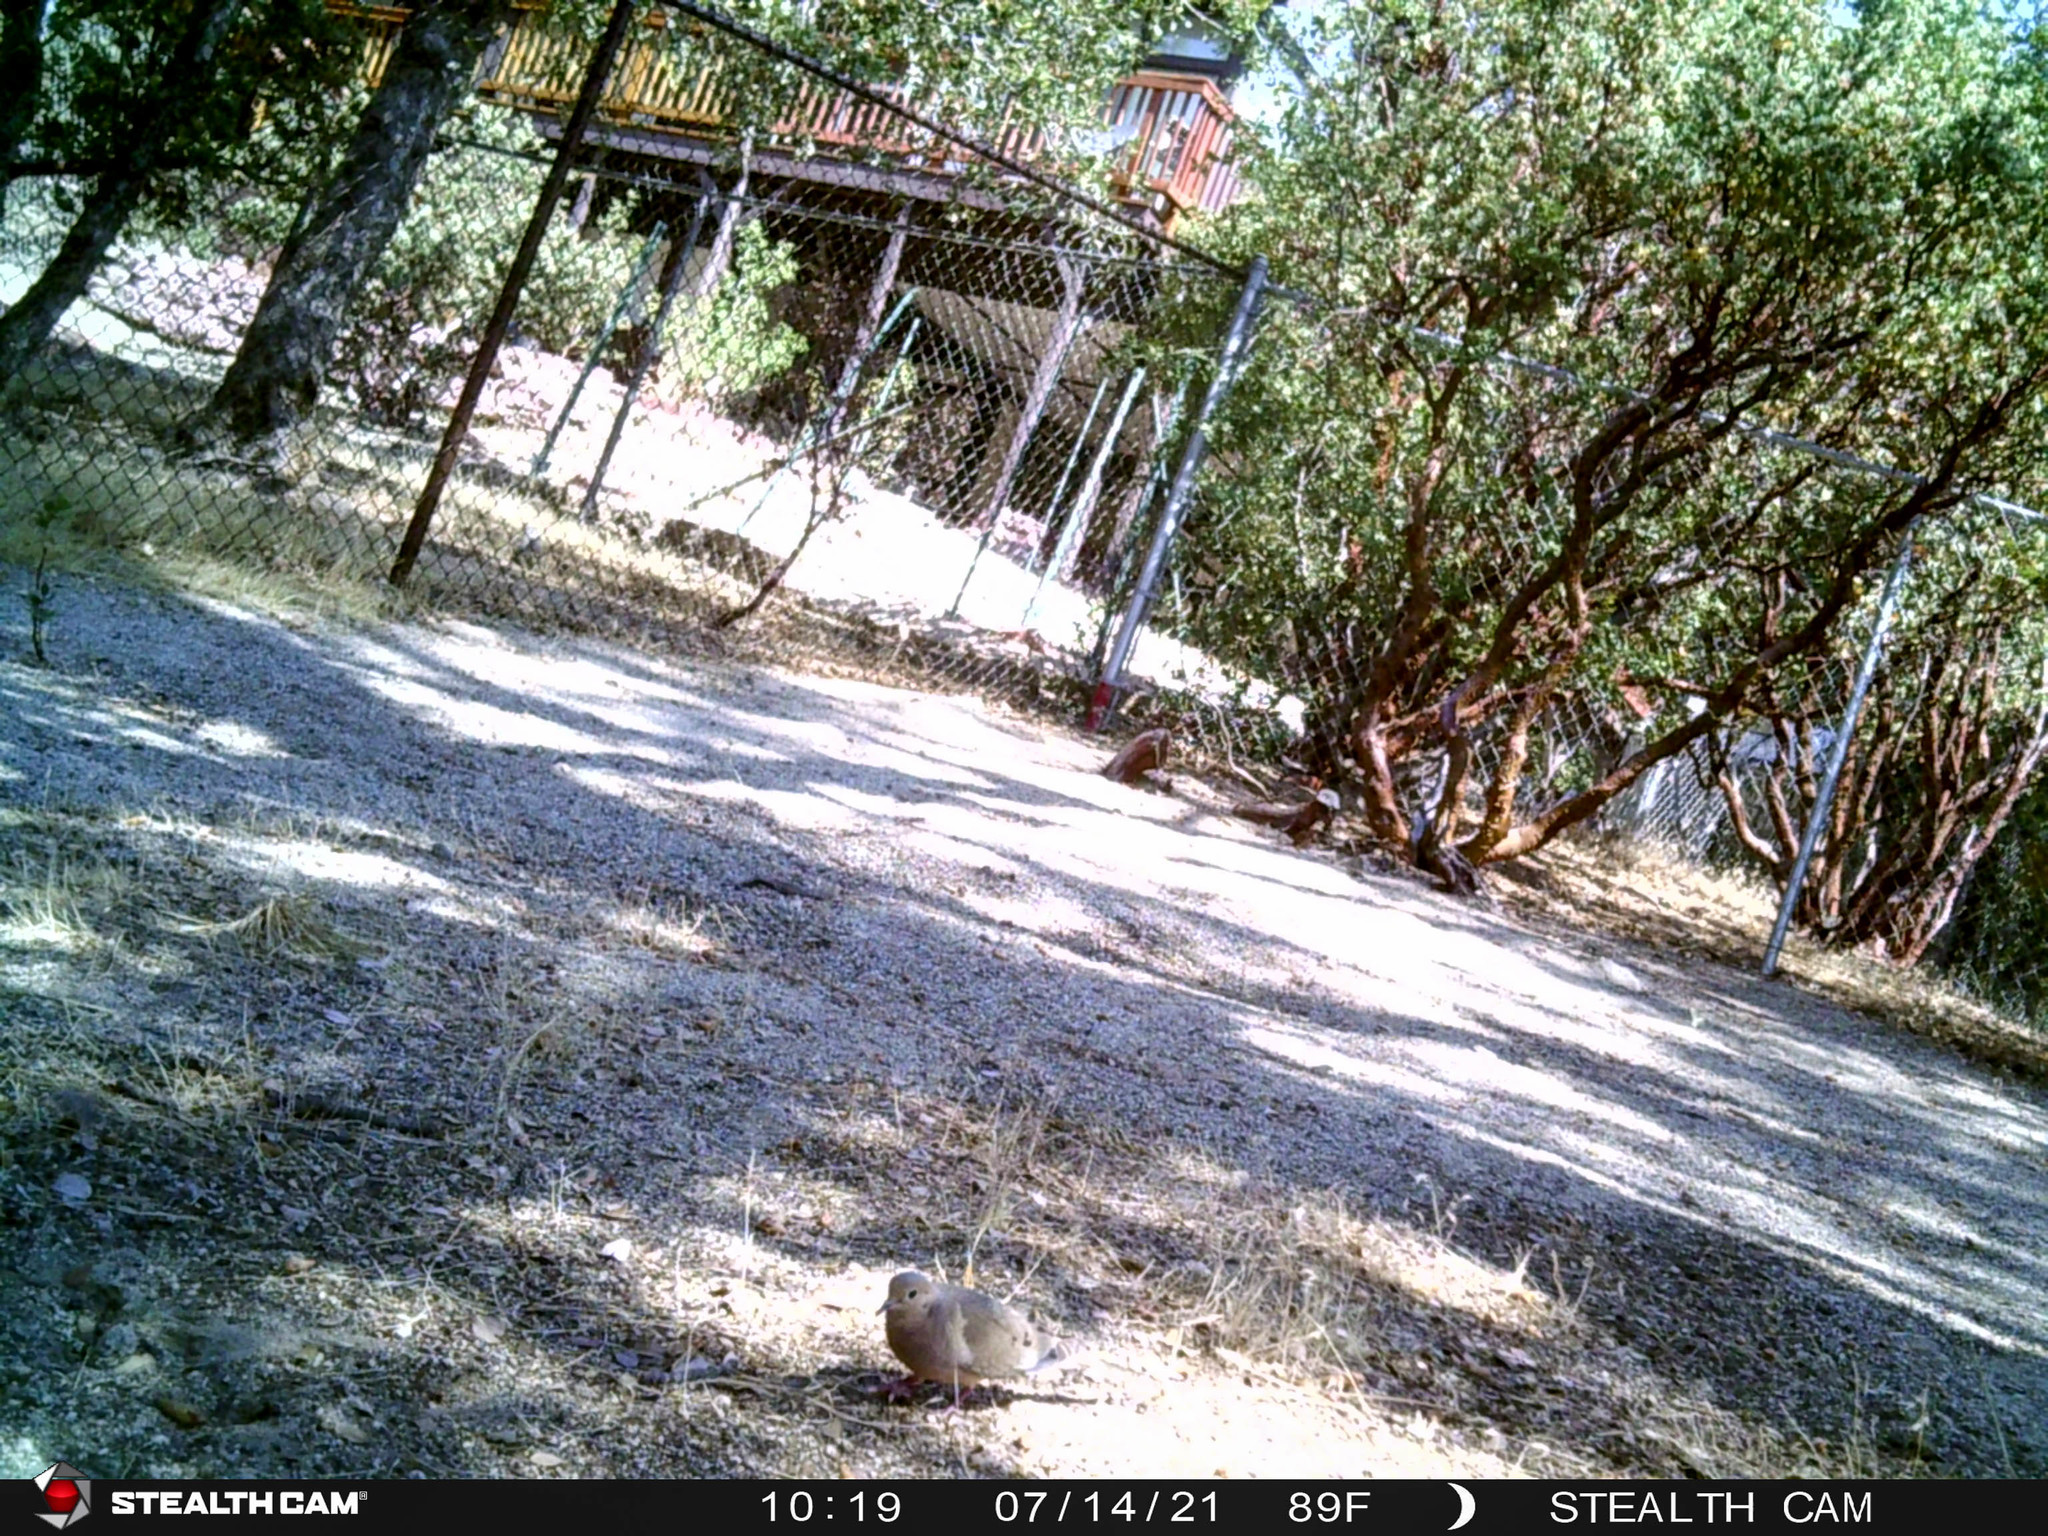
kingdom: Animalia
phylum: Chordata
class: Aves
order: Columbiformes
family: Columbidae
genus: Zenaida
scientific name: Zenaida macroura
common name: Mourning dove
